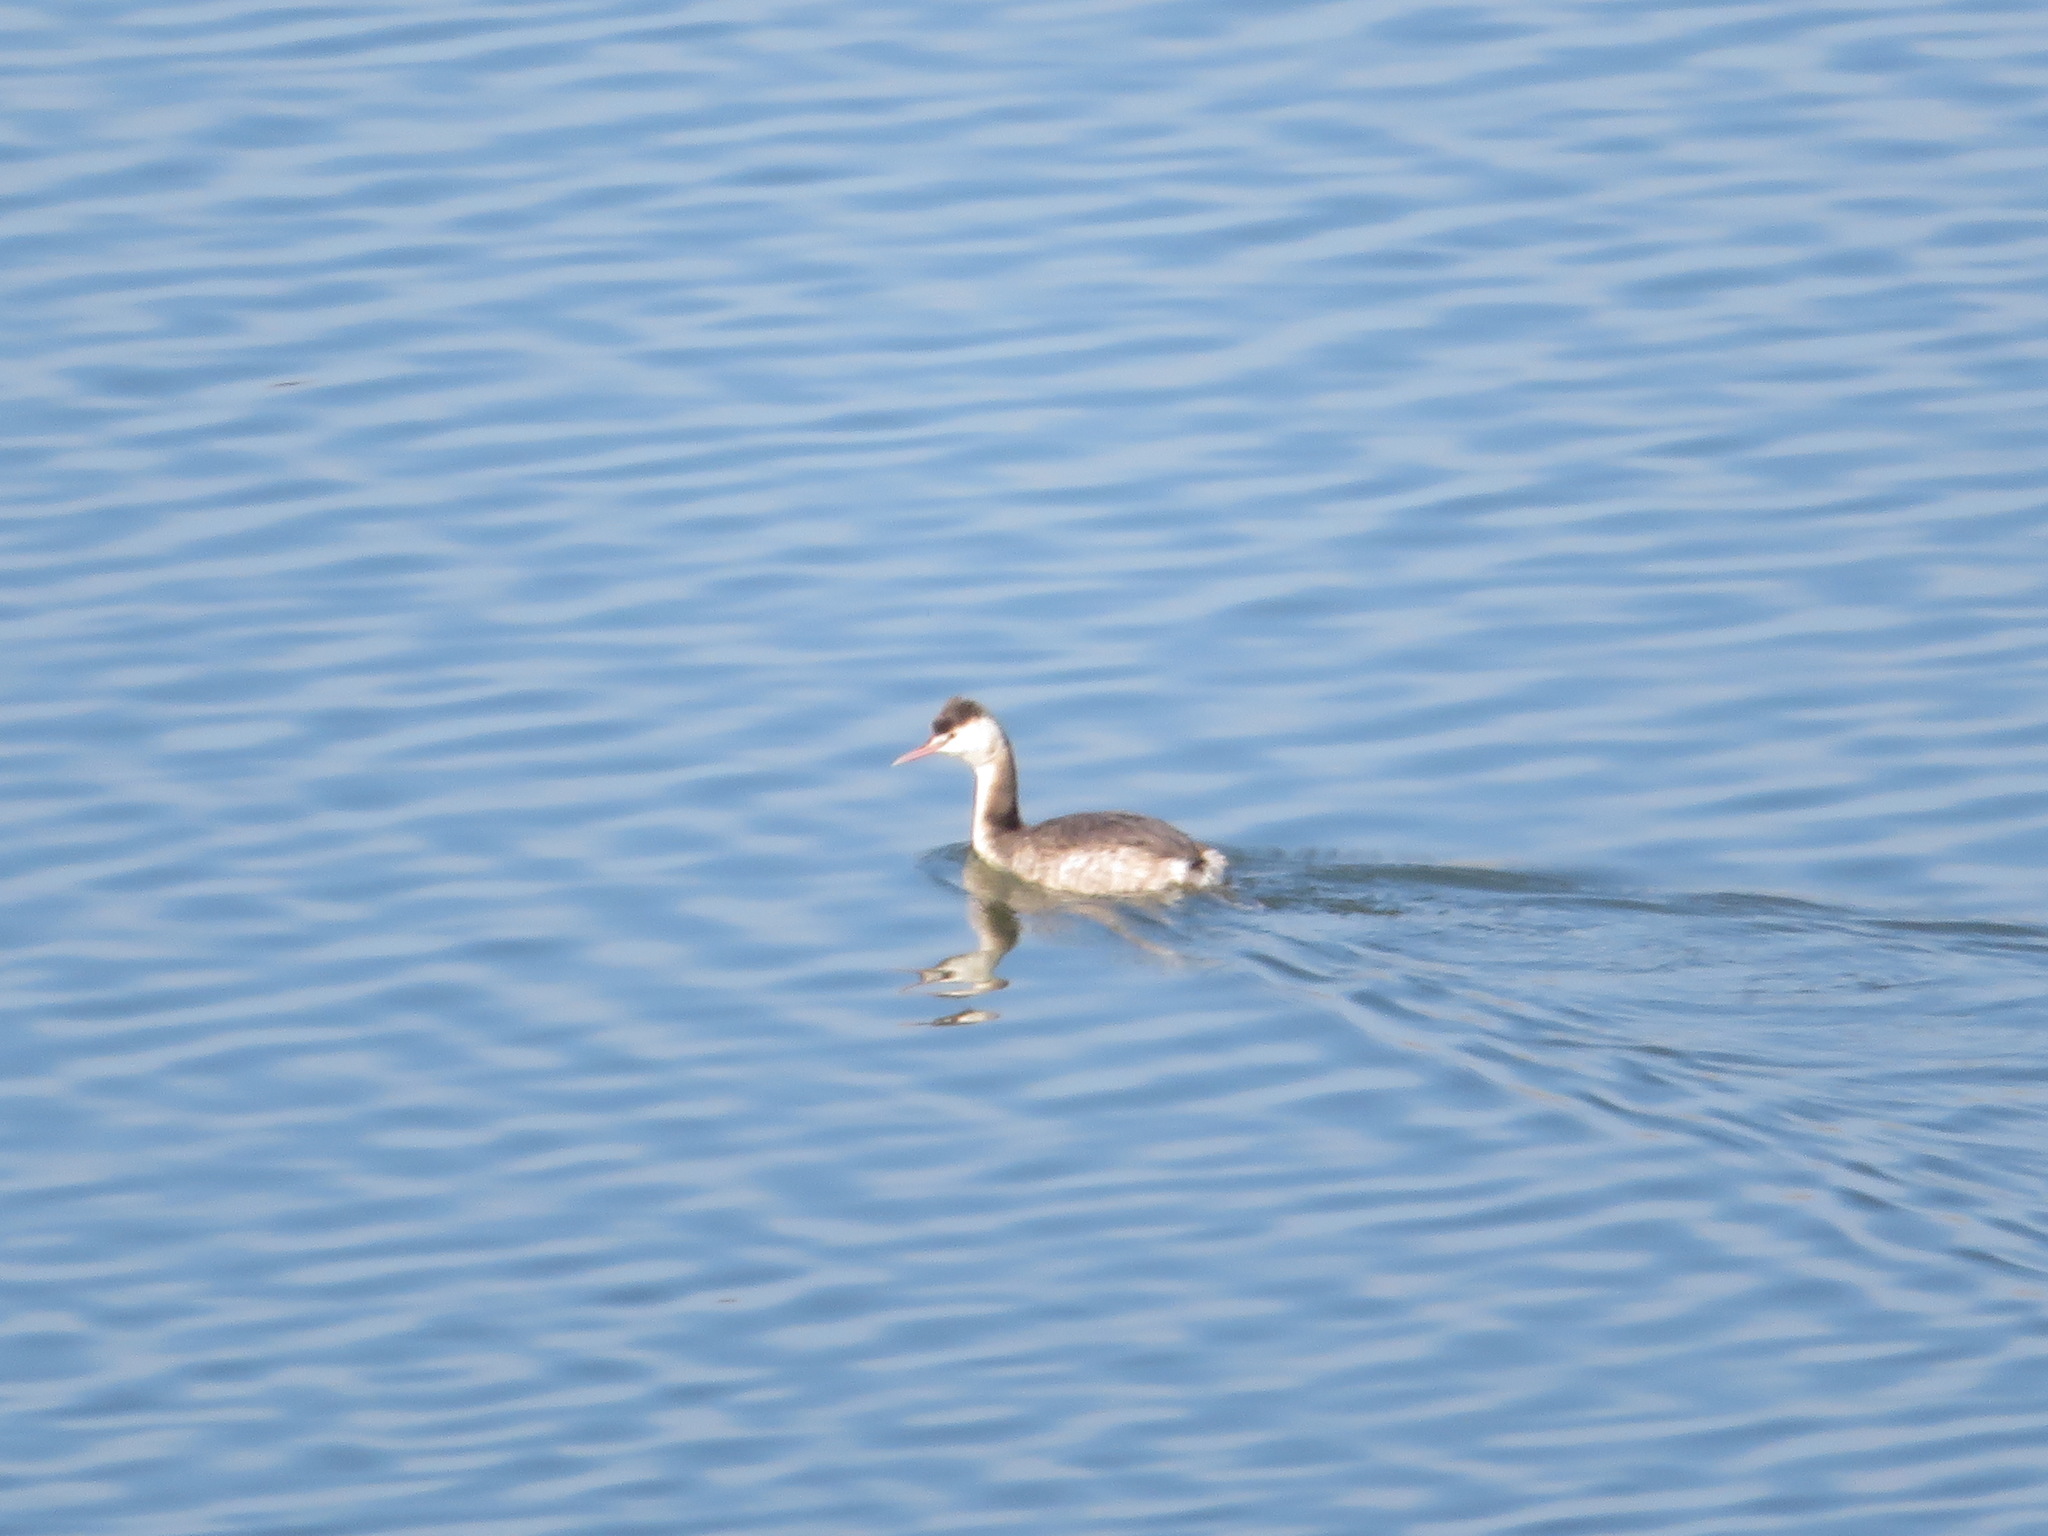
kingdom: Animalia
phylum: Chordata
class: Aves
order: Podicipediformes
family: Podicipedidae
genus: Podiceps
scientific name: Podiceps cristatus
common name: Great crested grebe
